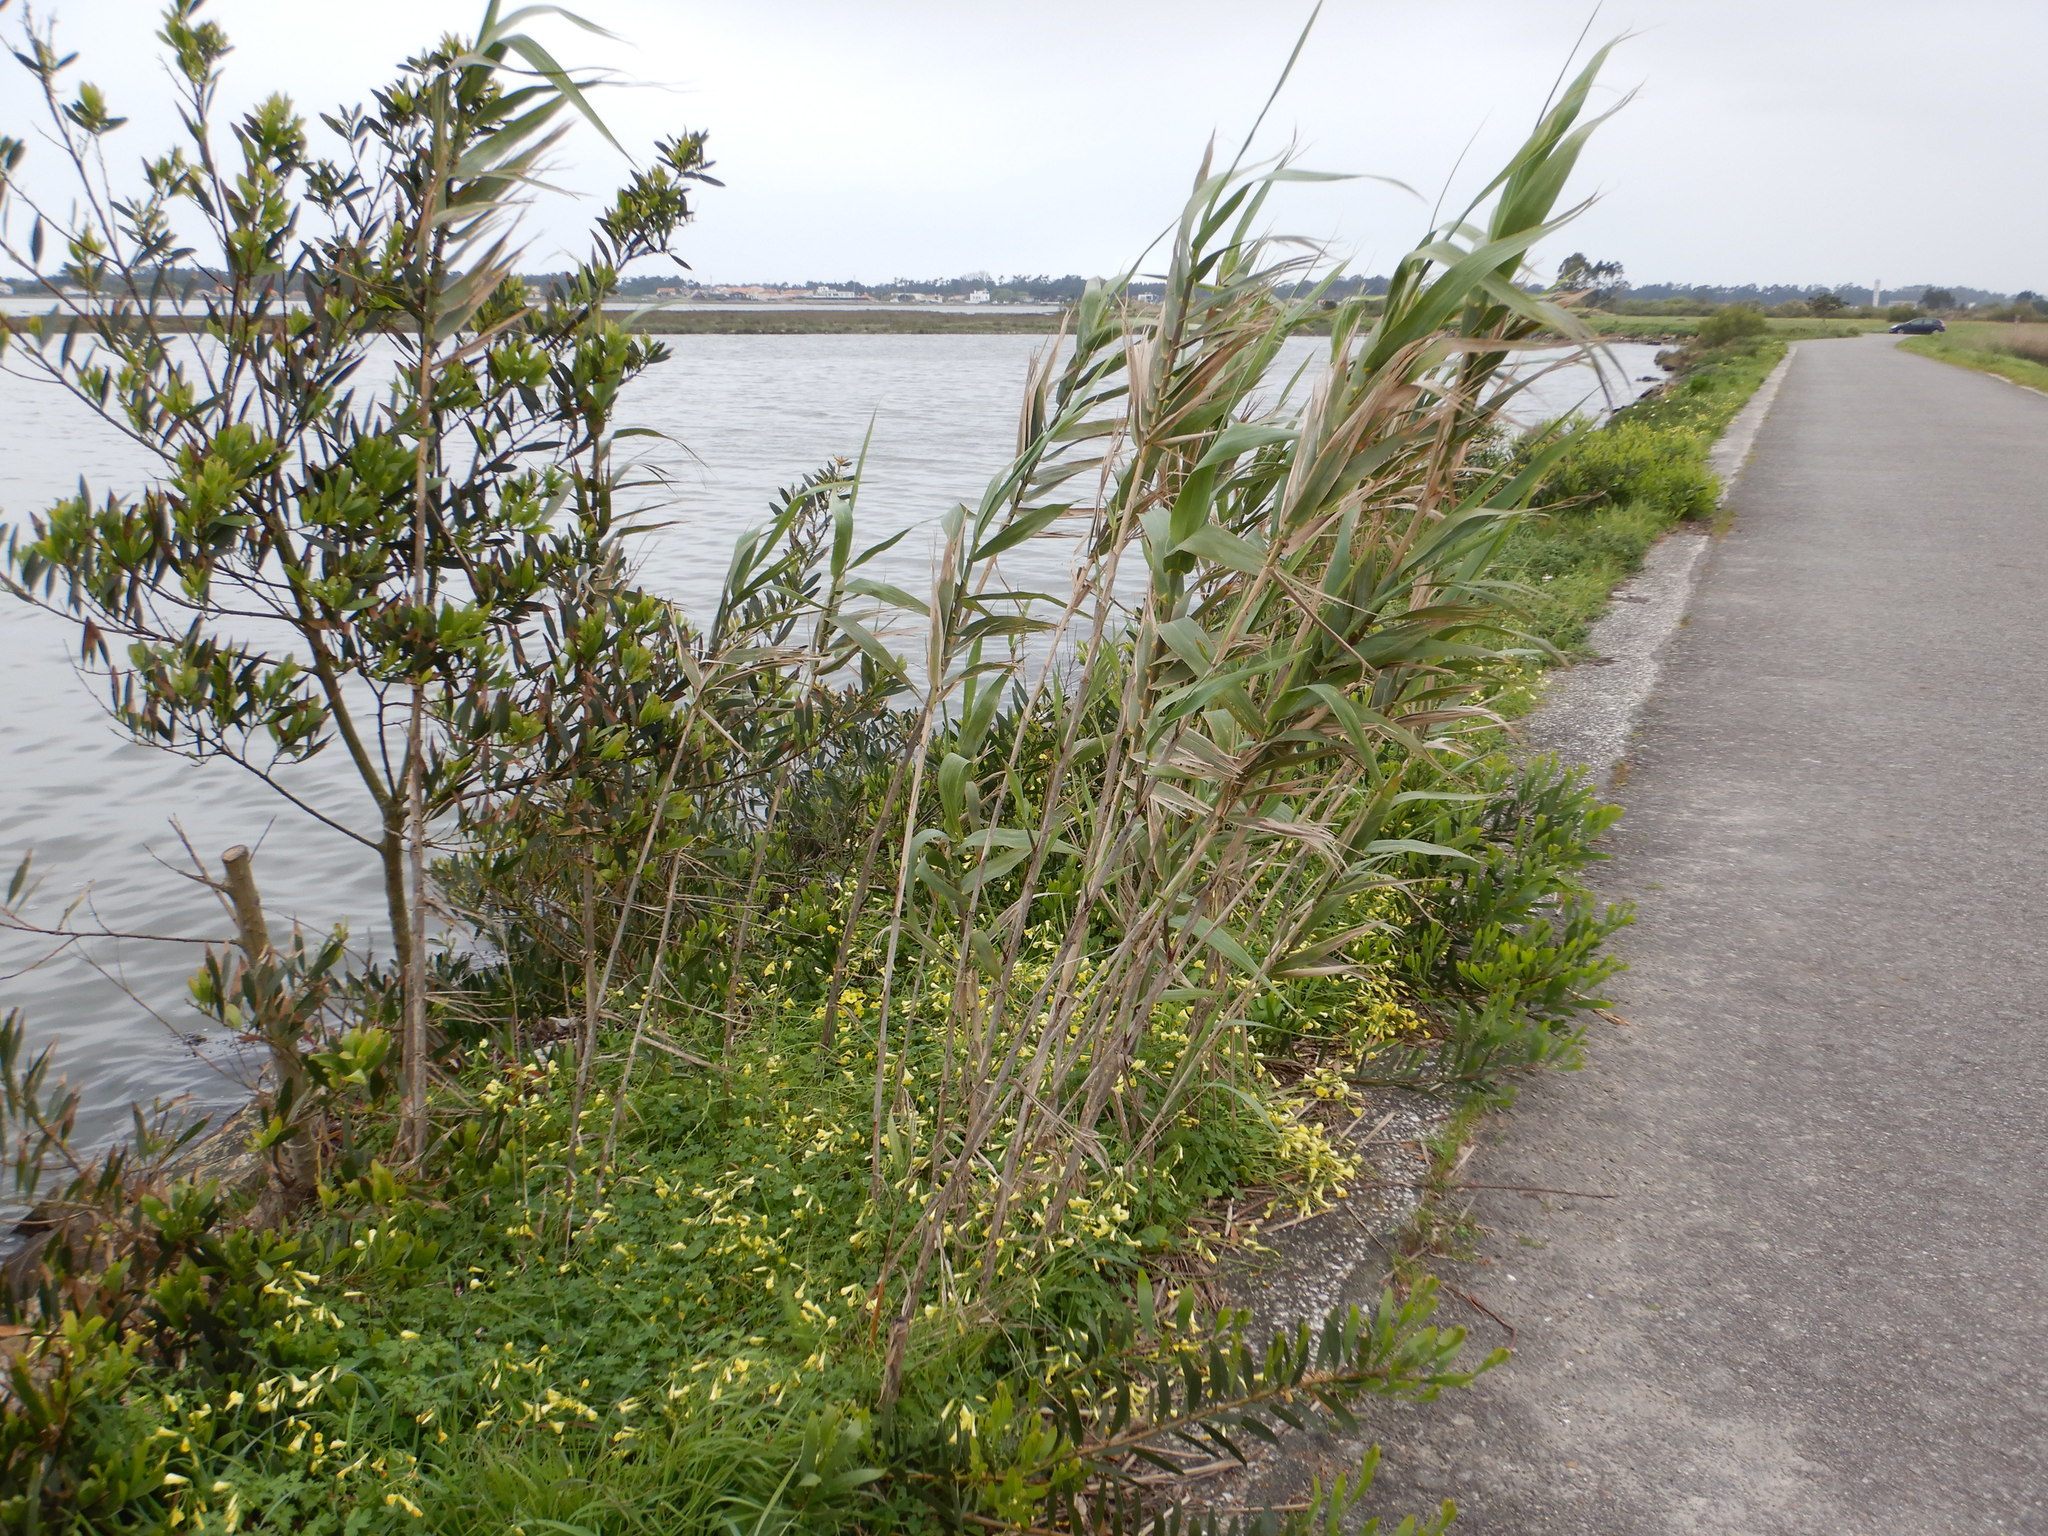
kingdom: Plantae
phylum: Tracheophyta
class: Liliopsida
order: Poales
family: Poaceae
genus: Arundo
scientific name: Arundo donax
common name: Giant reed
